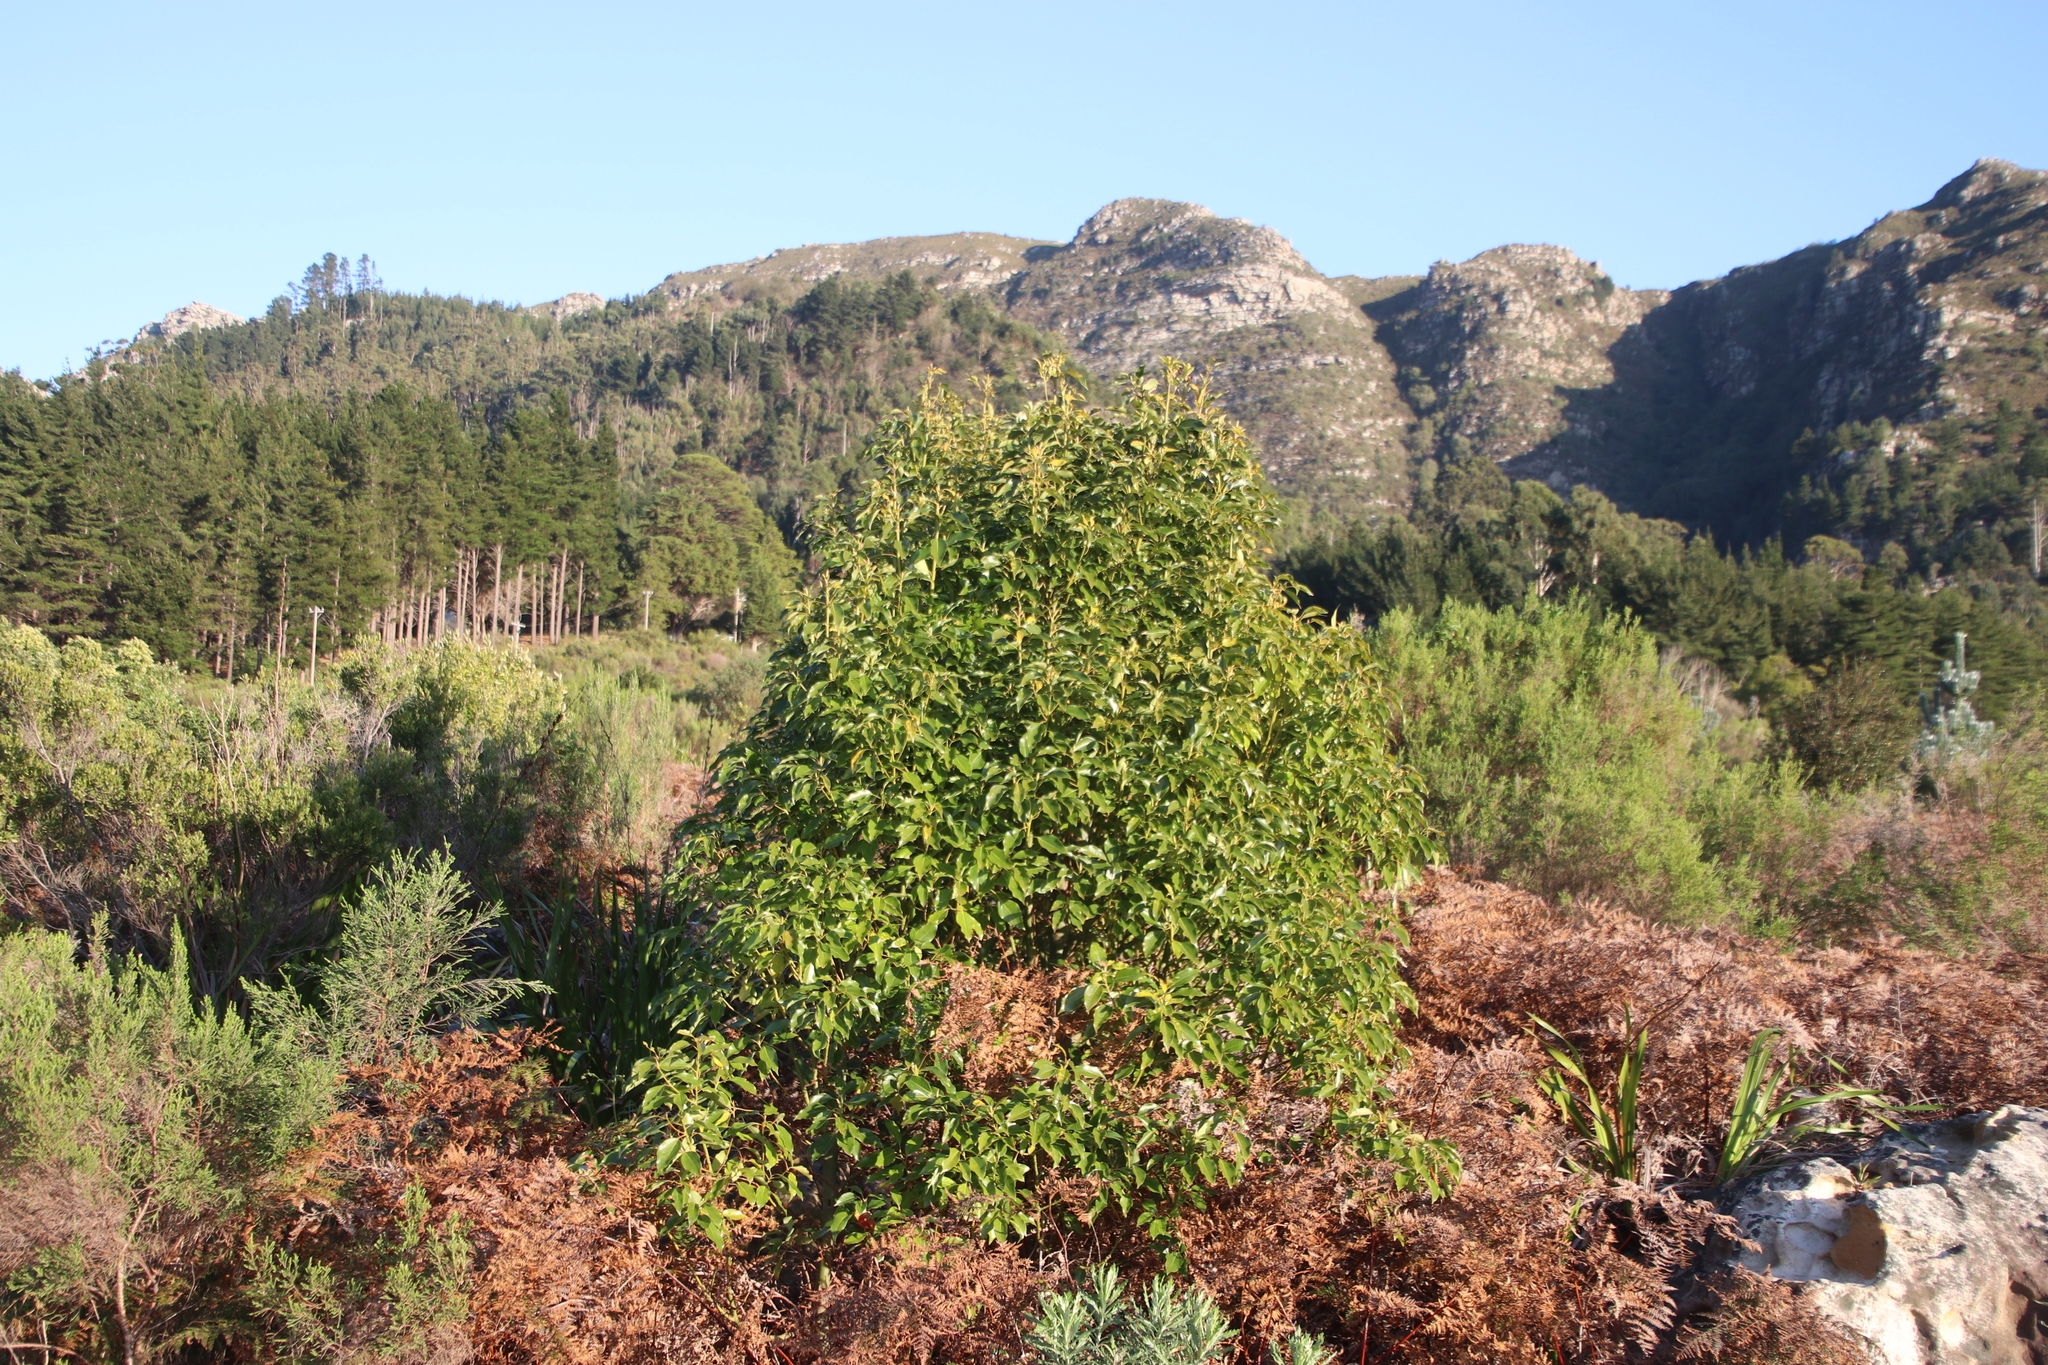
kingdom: Plantae
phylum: Tracheophyta
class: Magnoliopsida
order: Laurales
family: Lauraceae
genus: Cinnamomum
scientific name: Cinnamomum camphora
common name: Camphortree
